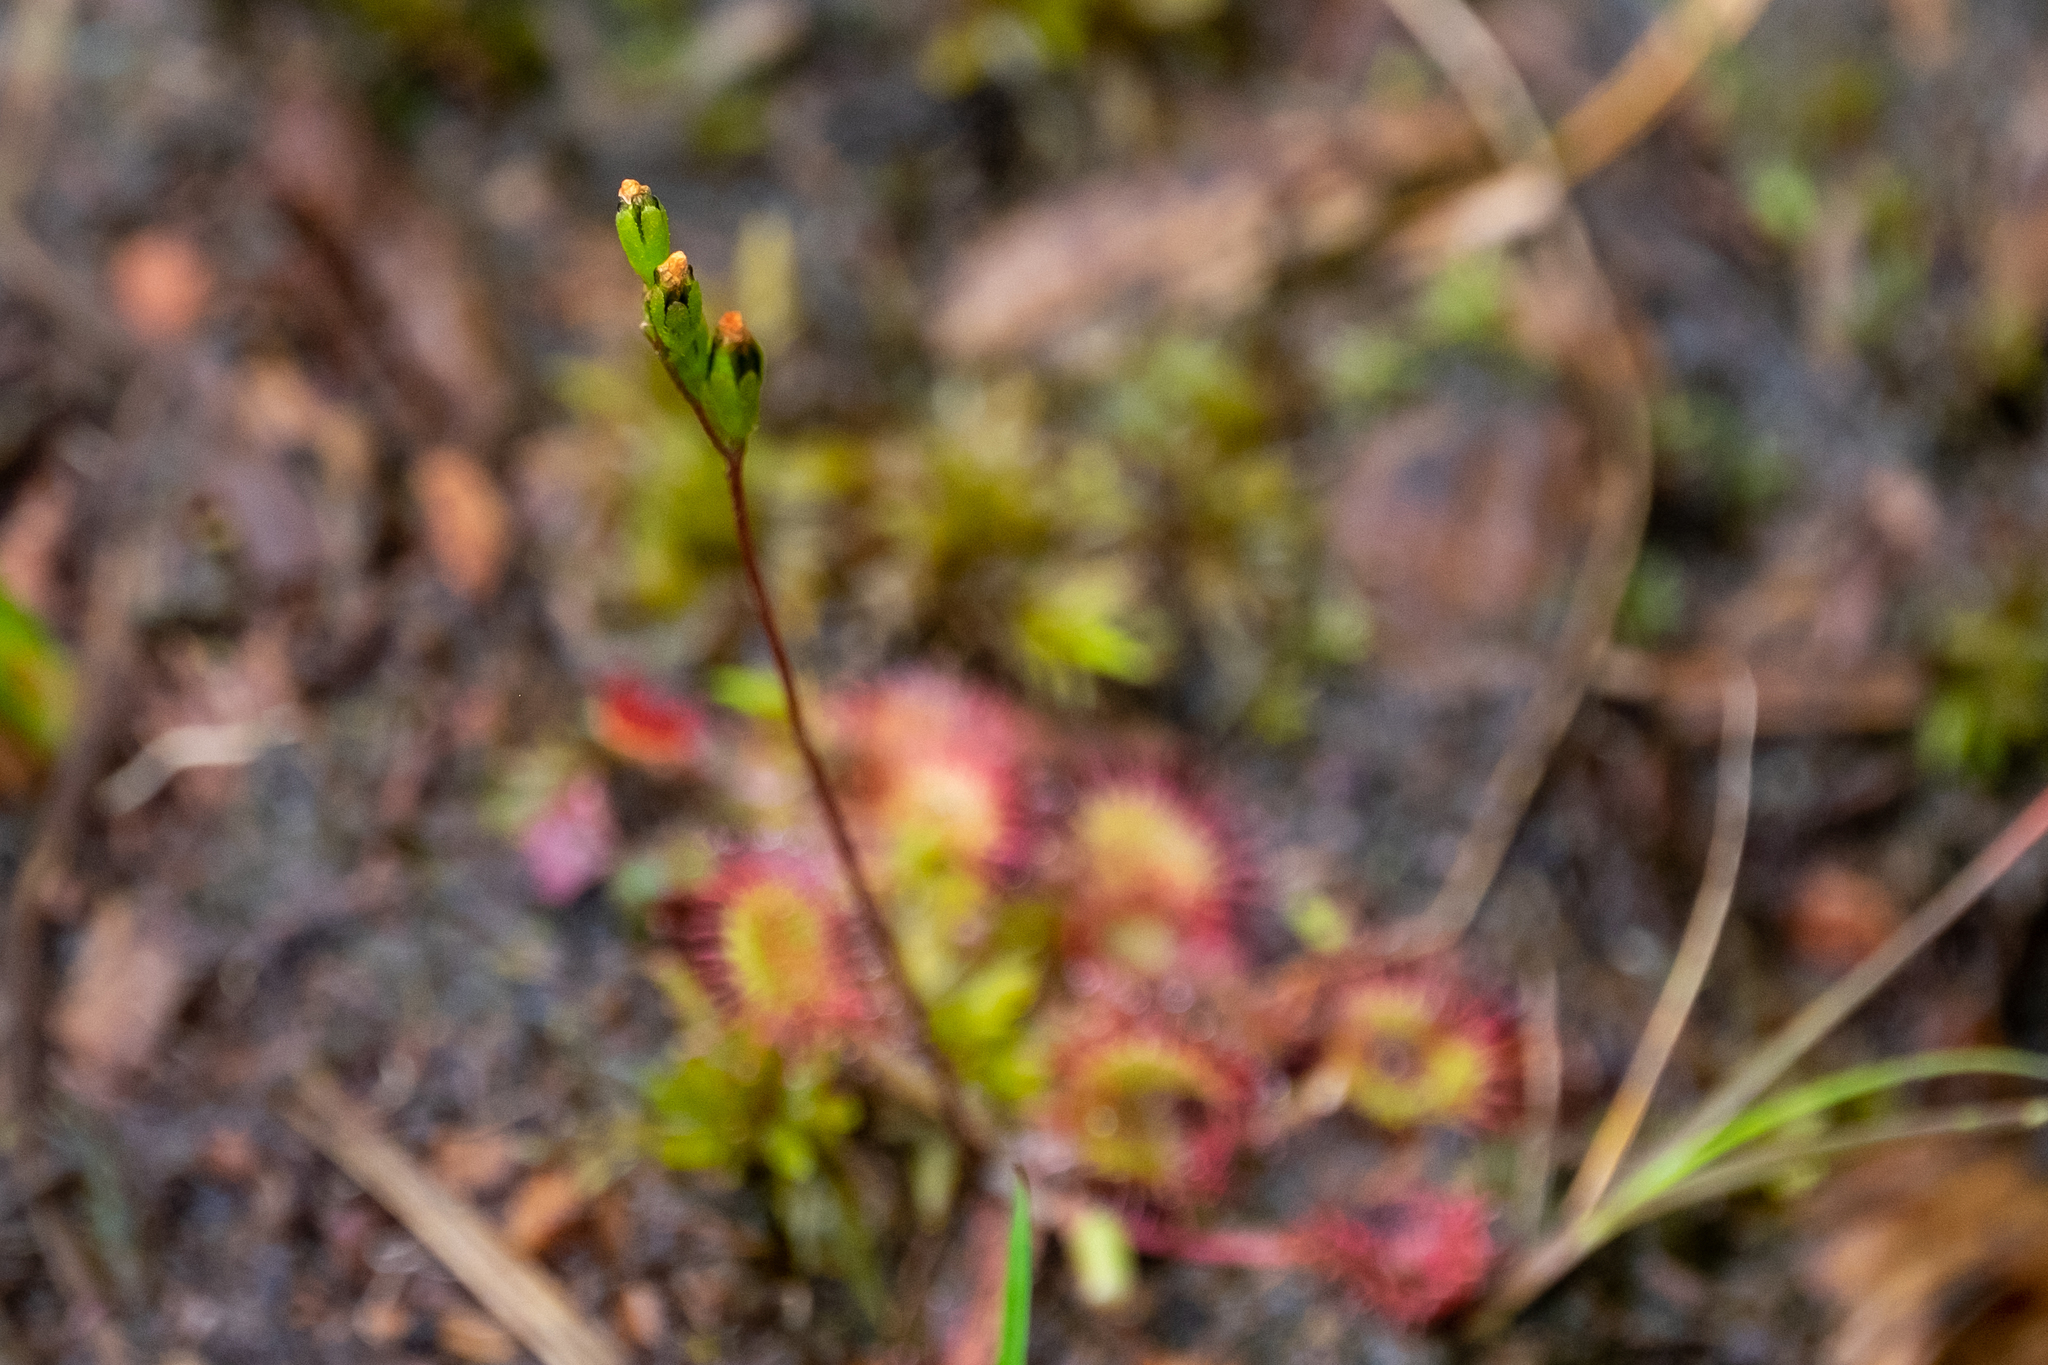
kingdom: Plantae
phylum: Tracheophyta
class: Magnoliopsida
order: Caryophyllales
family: Droseraceae
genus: Drosera
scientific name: Drosera rotundifolia
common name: Round-leaved sundew
